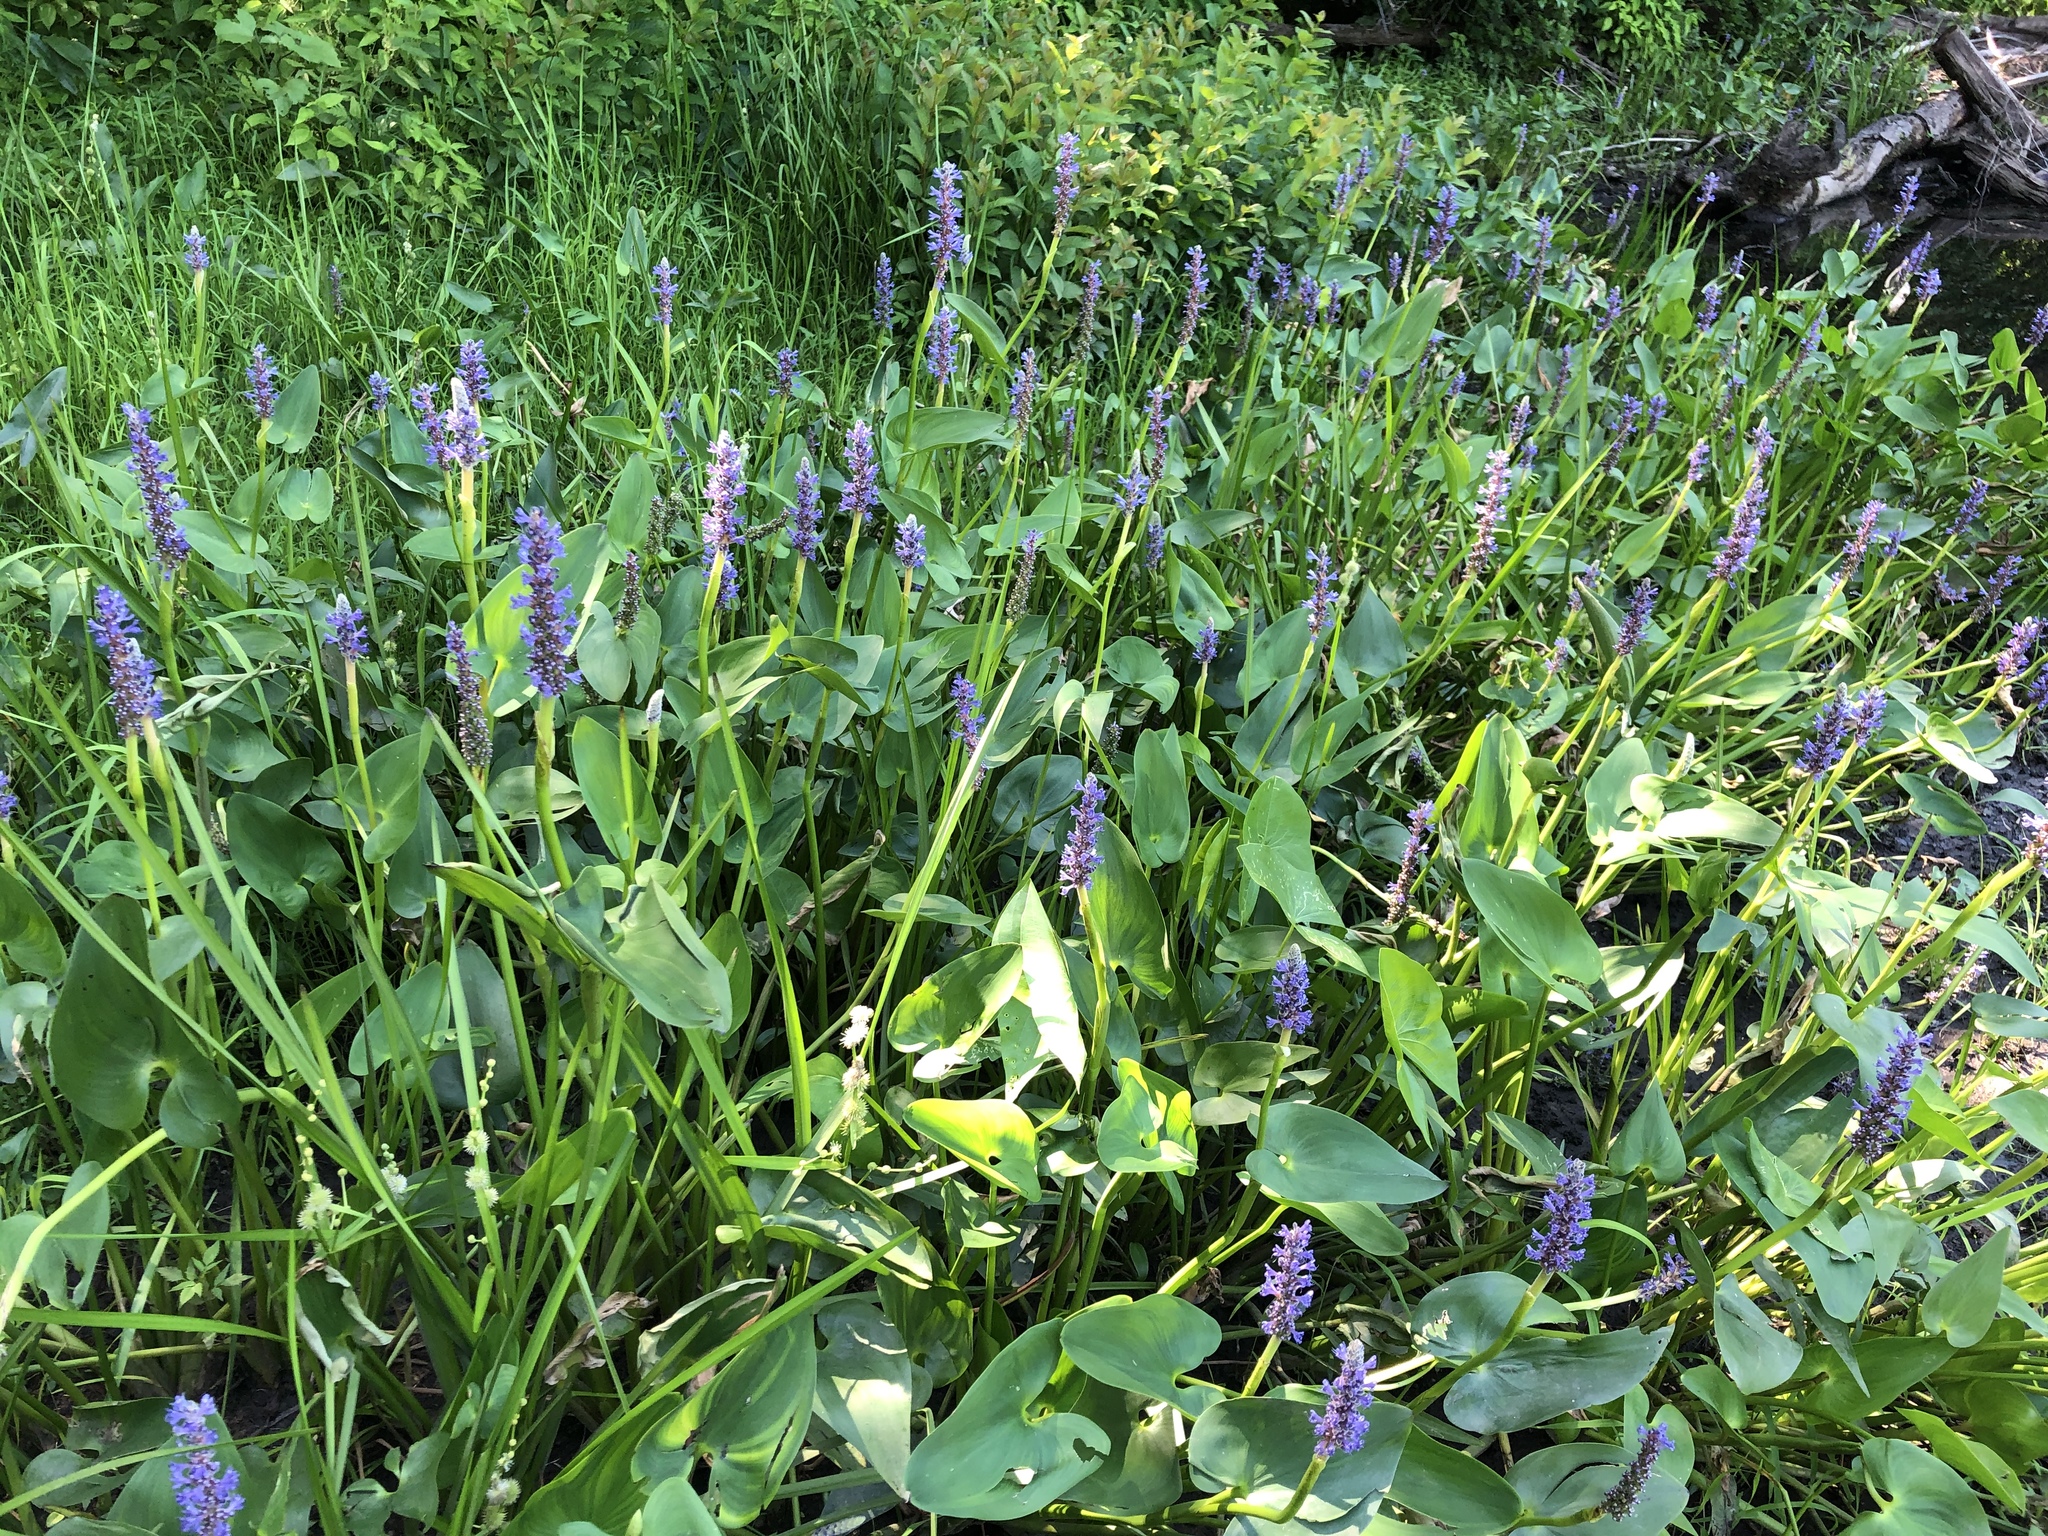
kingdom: Plantae
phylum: Tracheophyta
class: Liliopsida
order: Commelinales
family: Pontederiaceae
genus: Pontederia
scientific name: Pontederia cordata
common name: Pickerelweed
